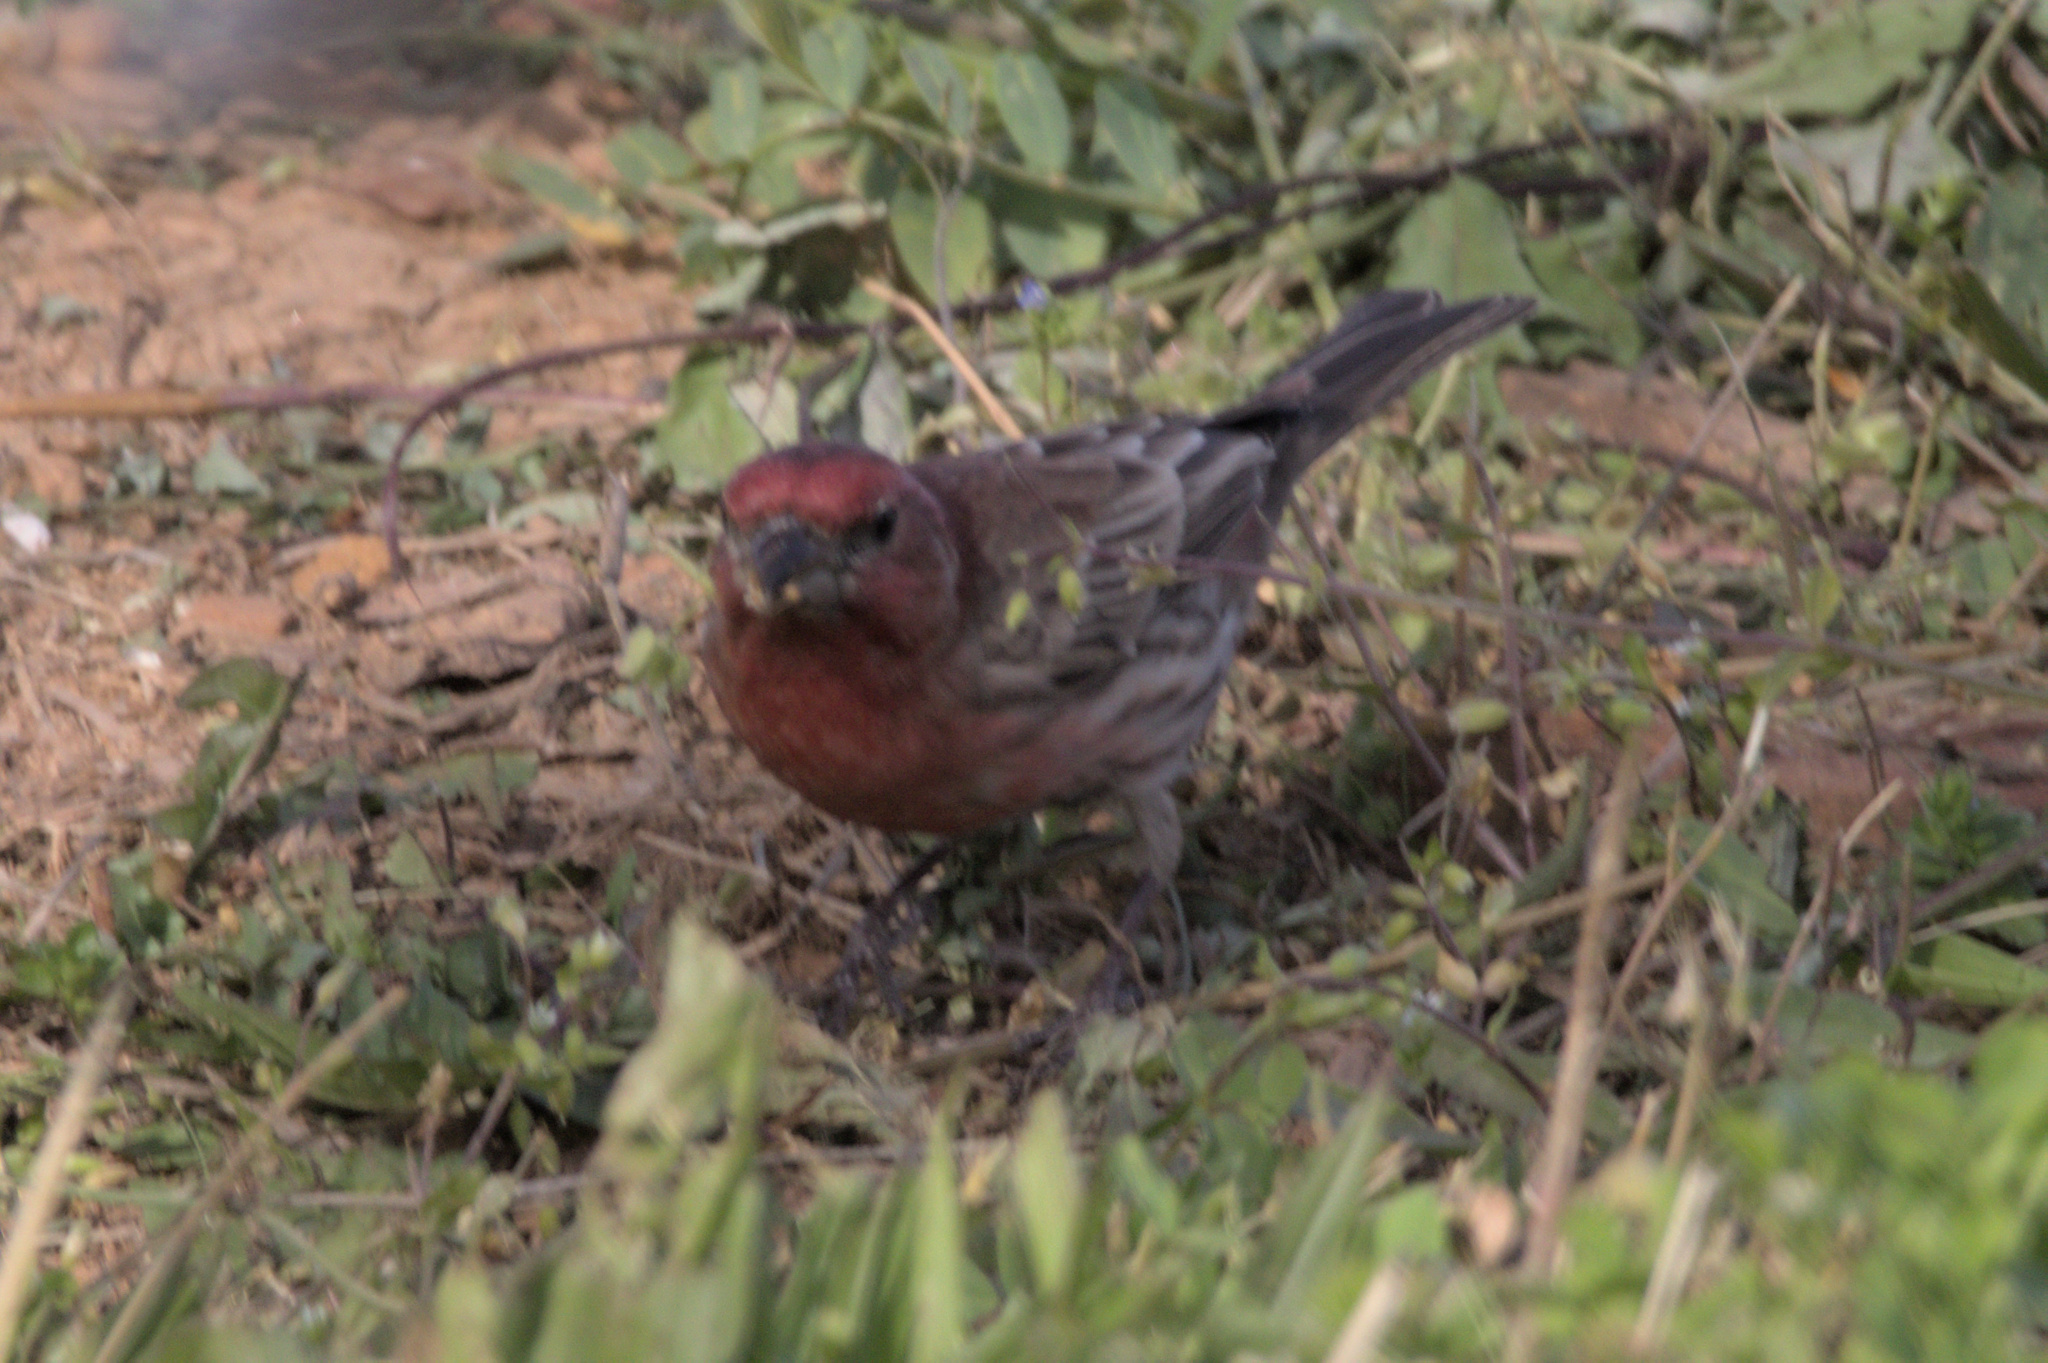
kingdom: Animalia
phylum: Chordata
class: Aves
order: Passeriformes
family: Fringillidae
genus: Haemorhous
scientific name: Haemorhous mexicanus
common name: House finch
